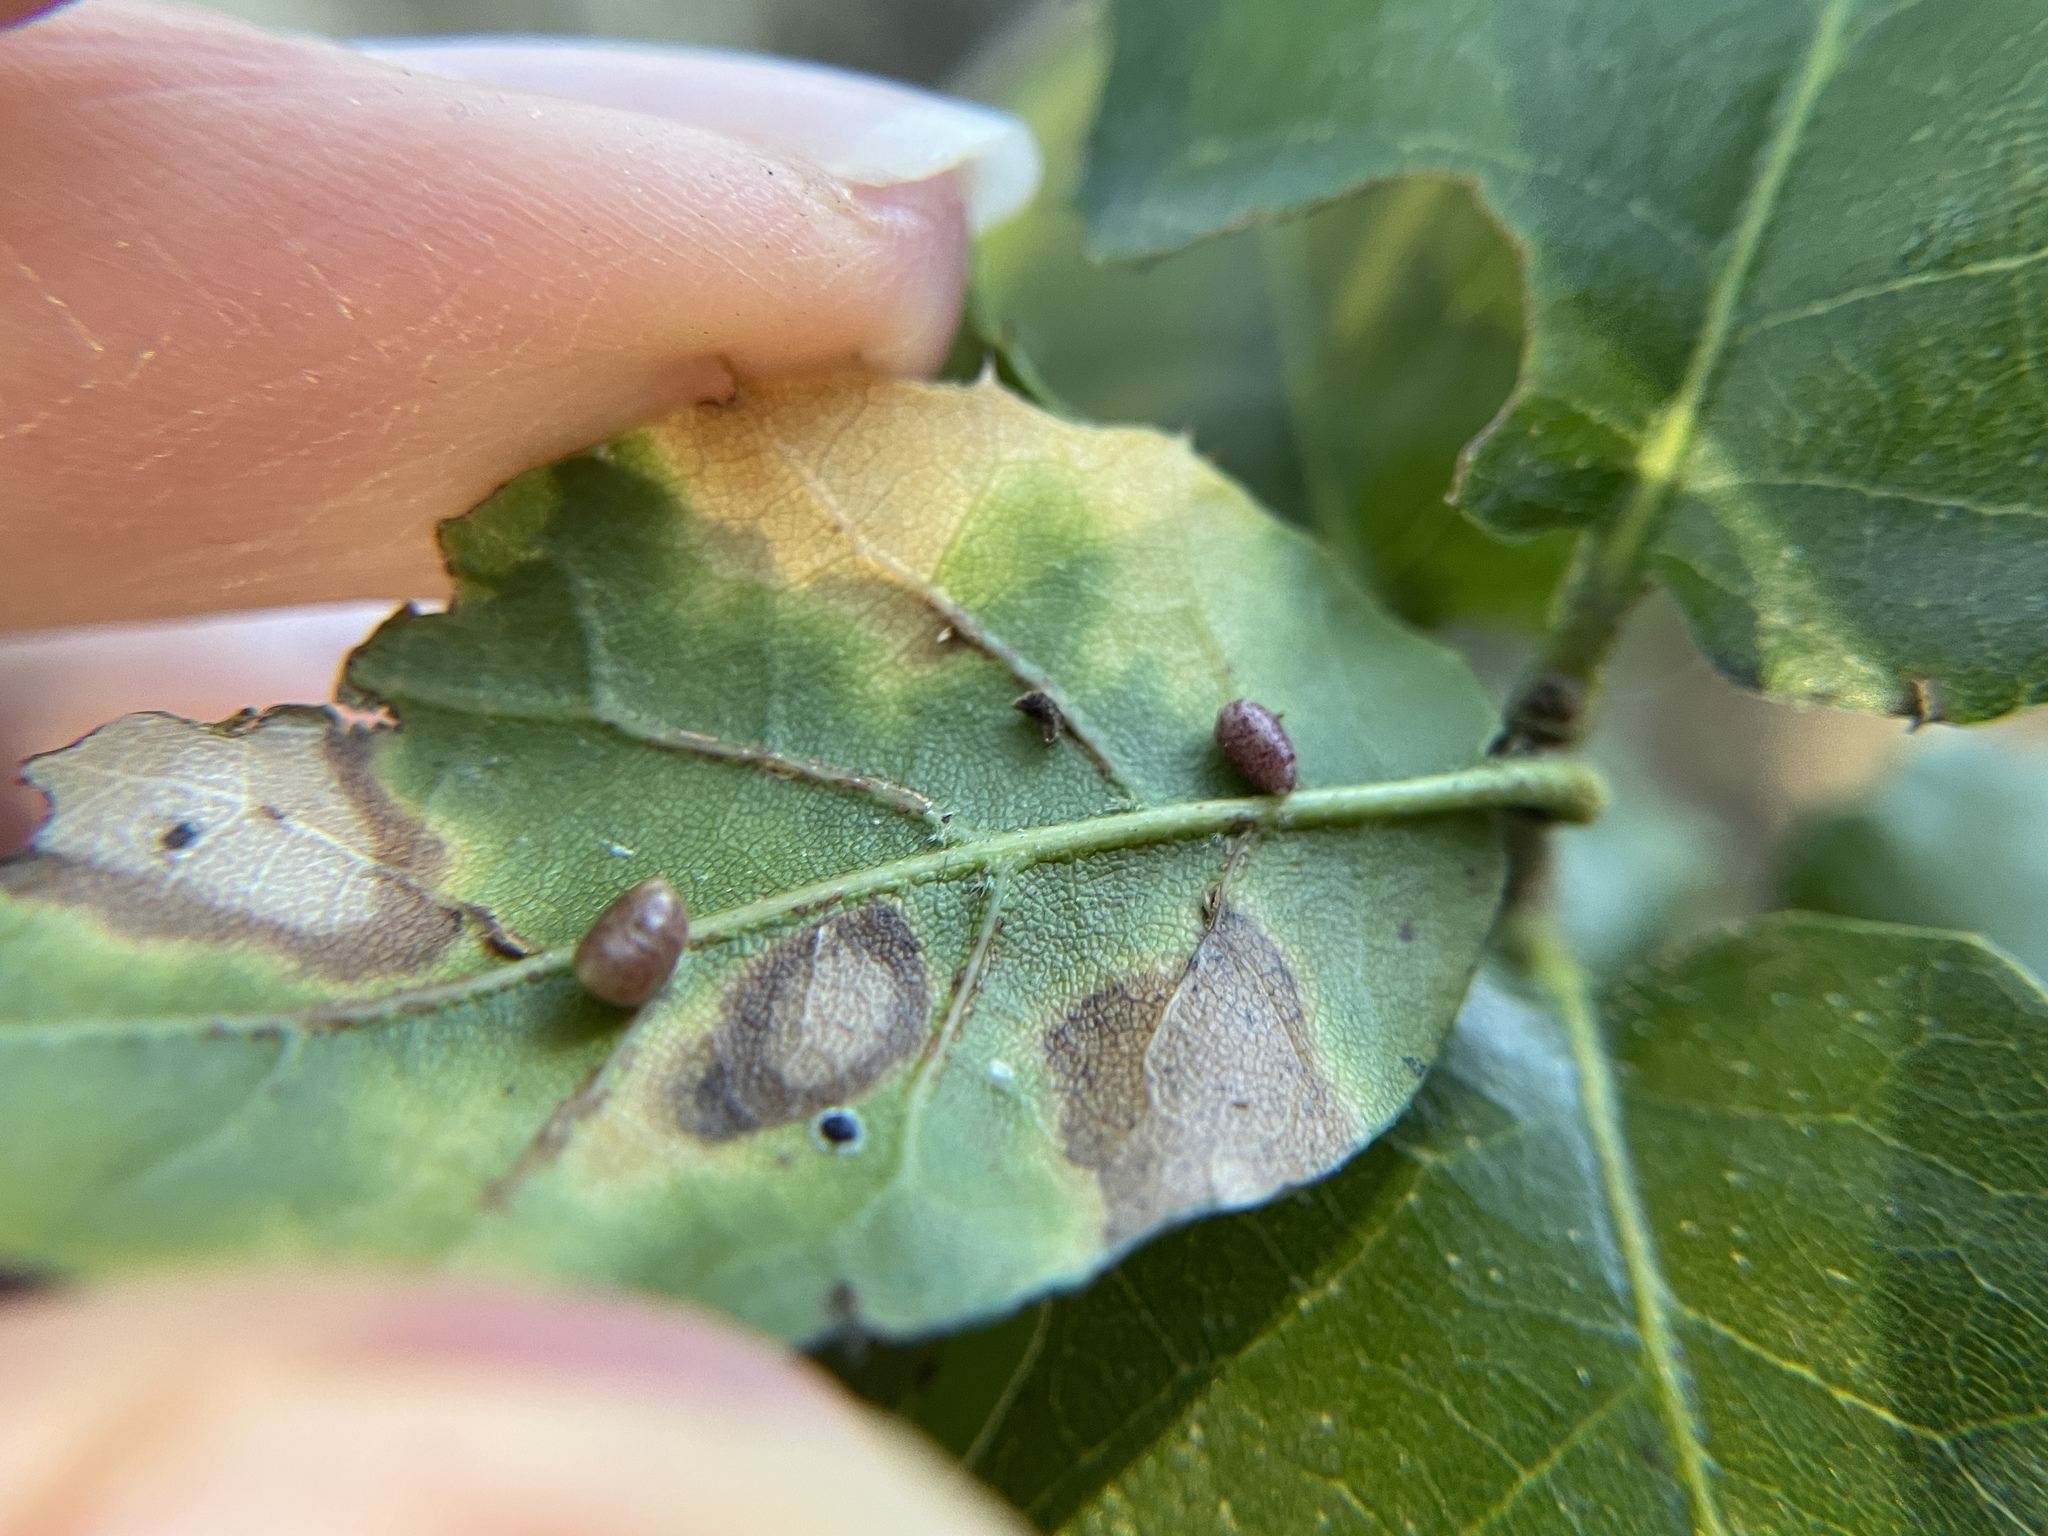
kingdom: Animalia
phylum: Arthropoda
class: Insecta
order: Hymenoptera
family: Cynipidae
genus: Dryocosmus
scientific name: Dryocosmus
